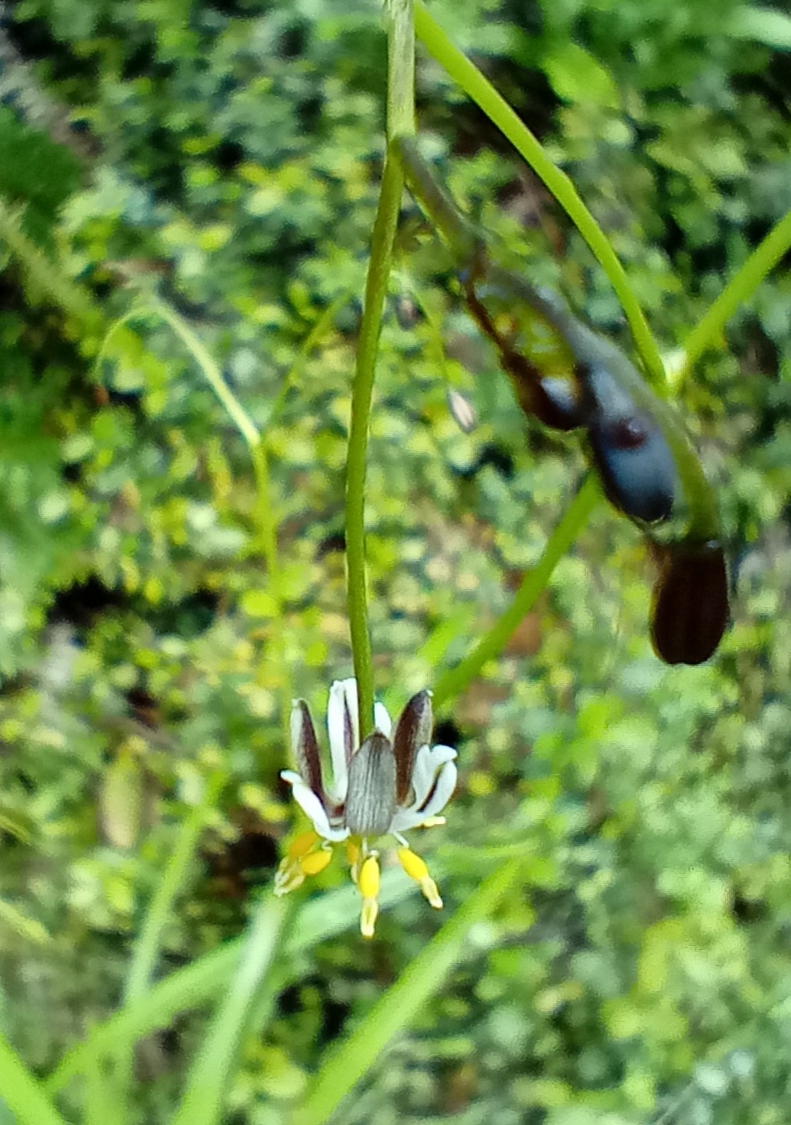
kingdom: Plantae
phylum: Tracheophyta
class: Liliopsida
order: Asparagales
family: Asphodelaceae
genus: Dianella
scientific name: Dianella nigra
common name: New zealand-blueberry
